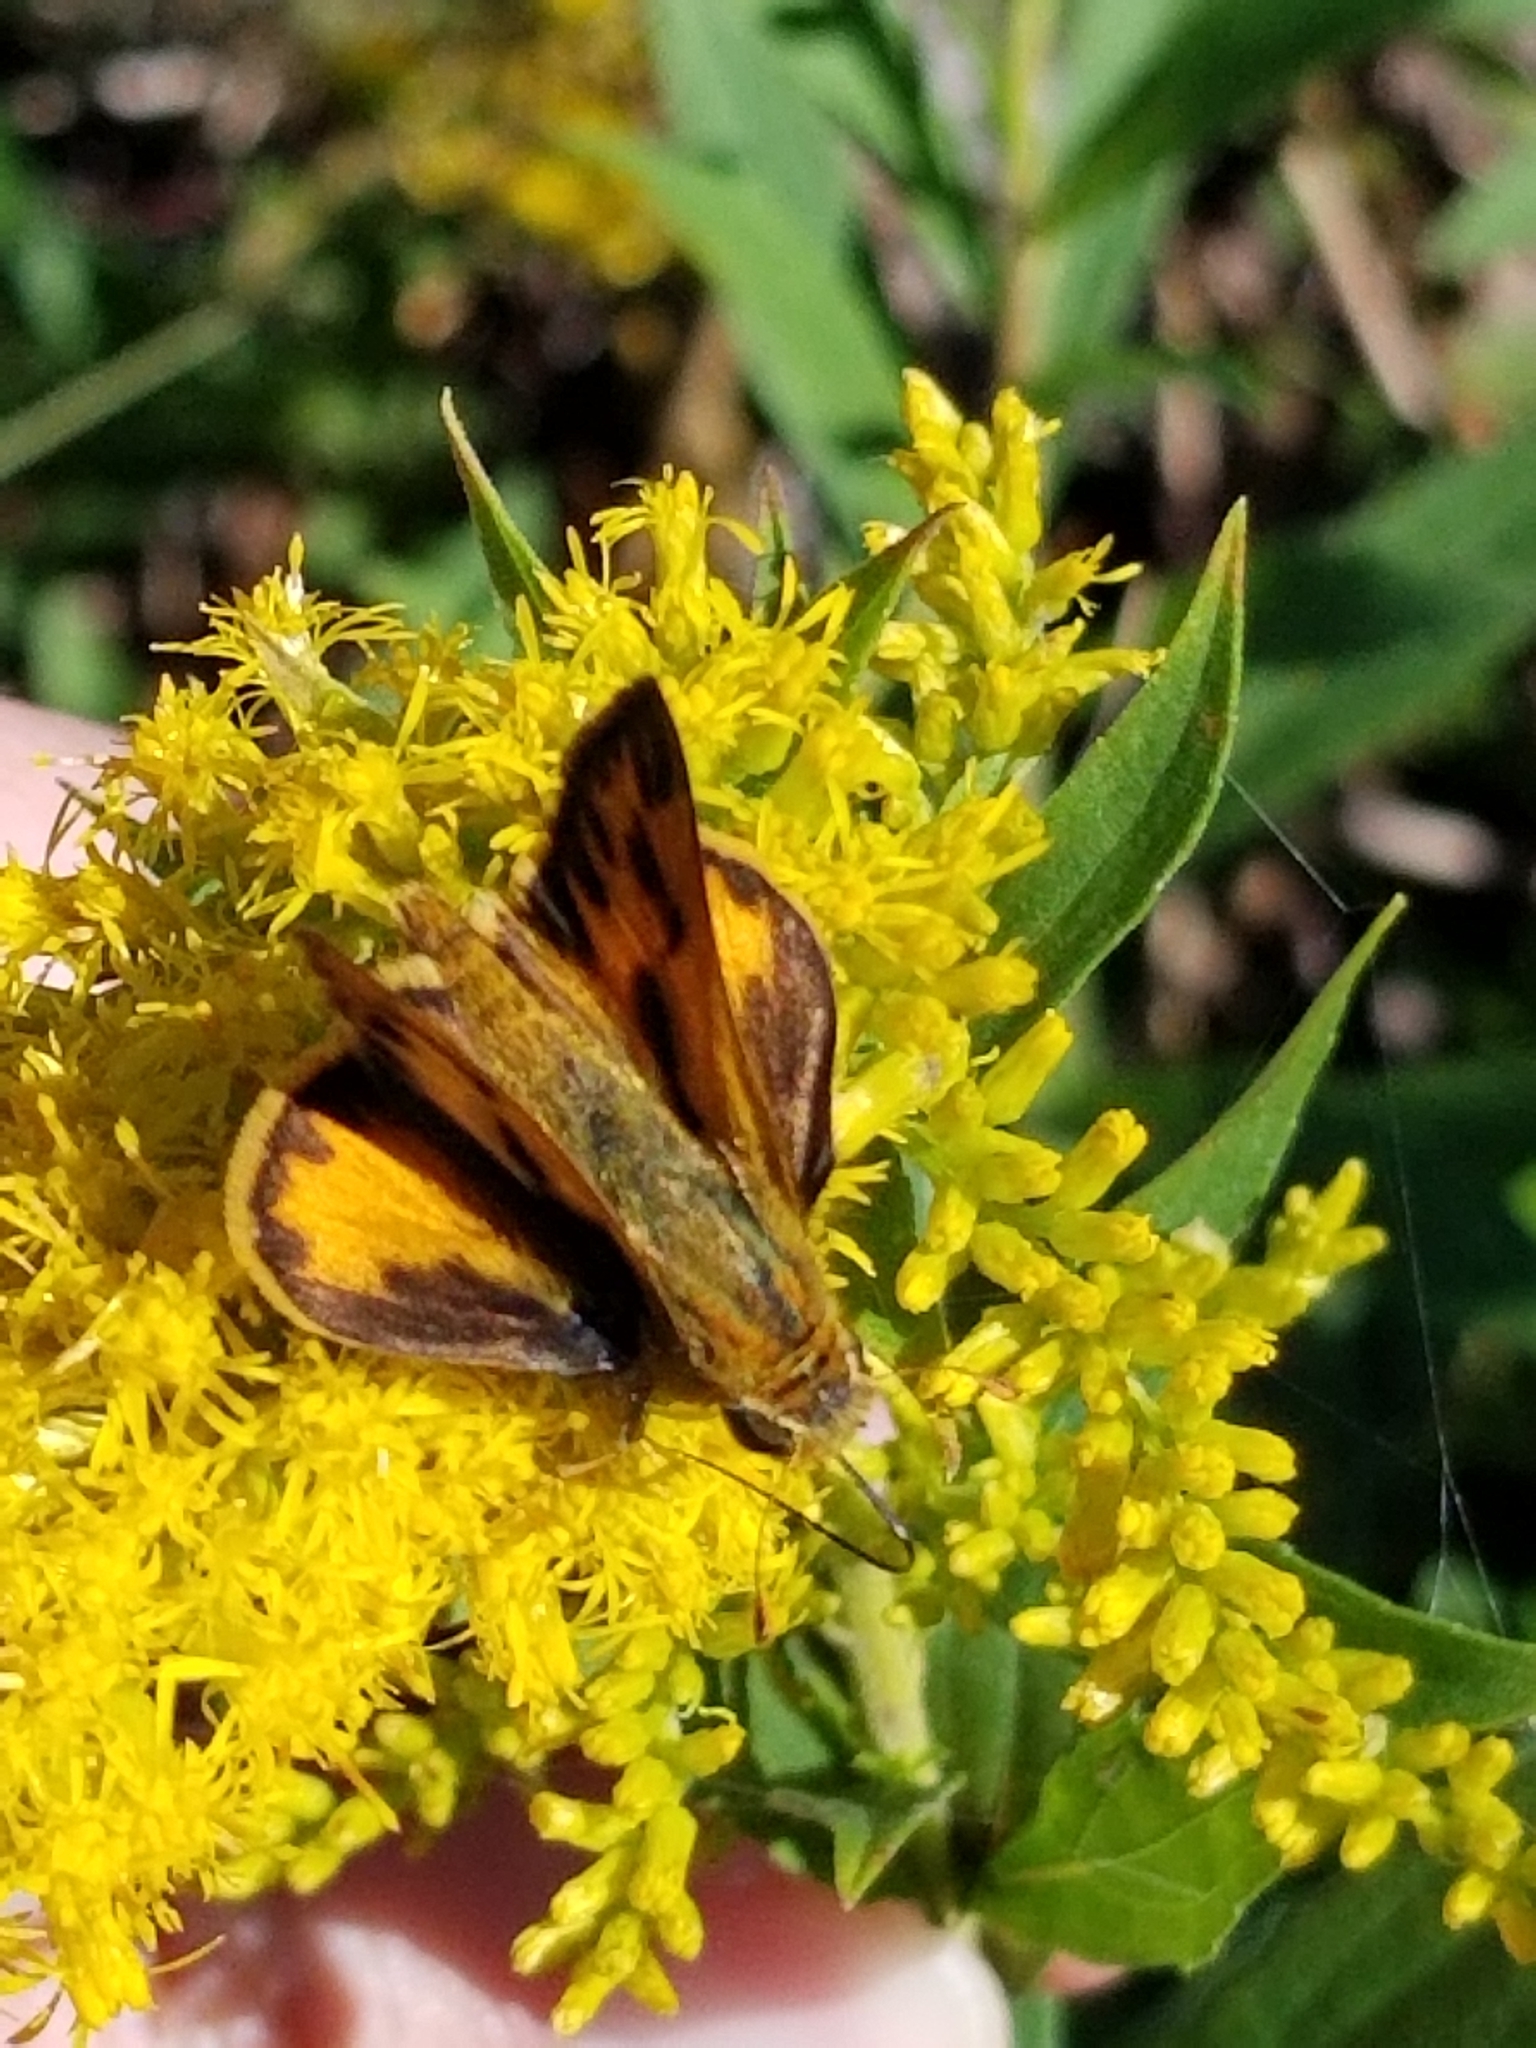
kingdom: Animalia
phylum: Arthropoda
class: Insecta
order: Lepidoptera
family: Hesperiidae
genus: Hylephila
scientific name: Hylephila phyleus
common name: Fiery skipper
